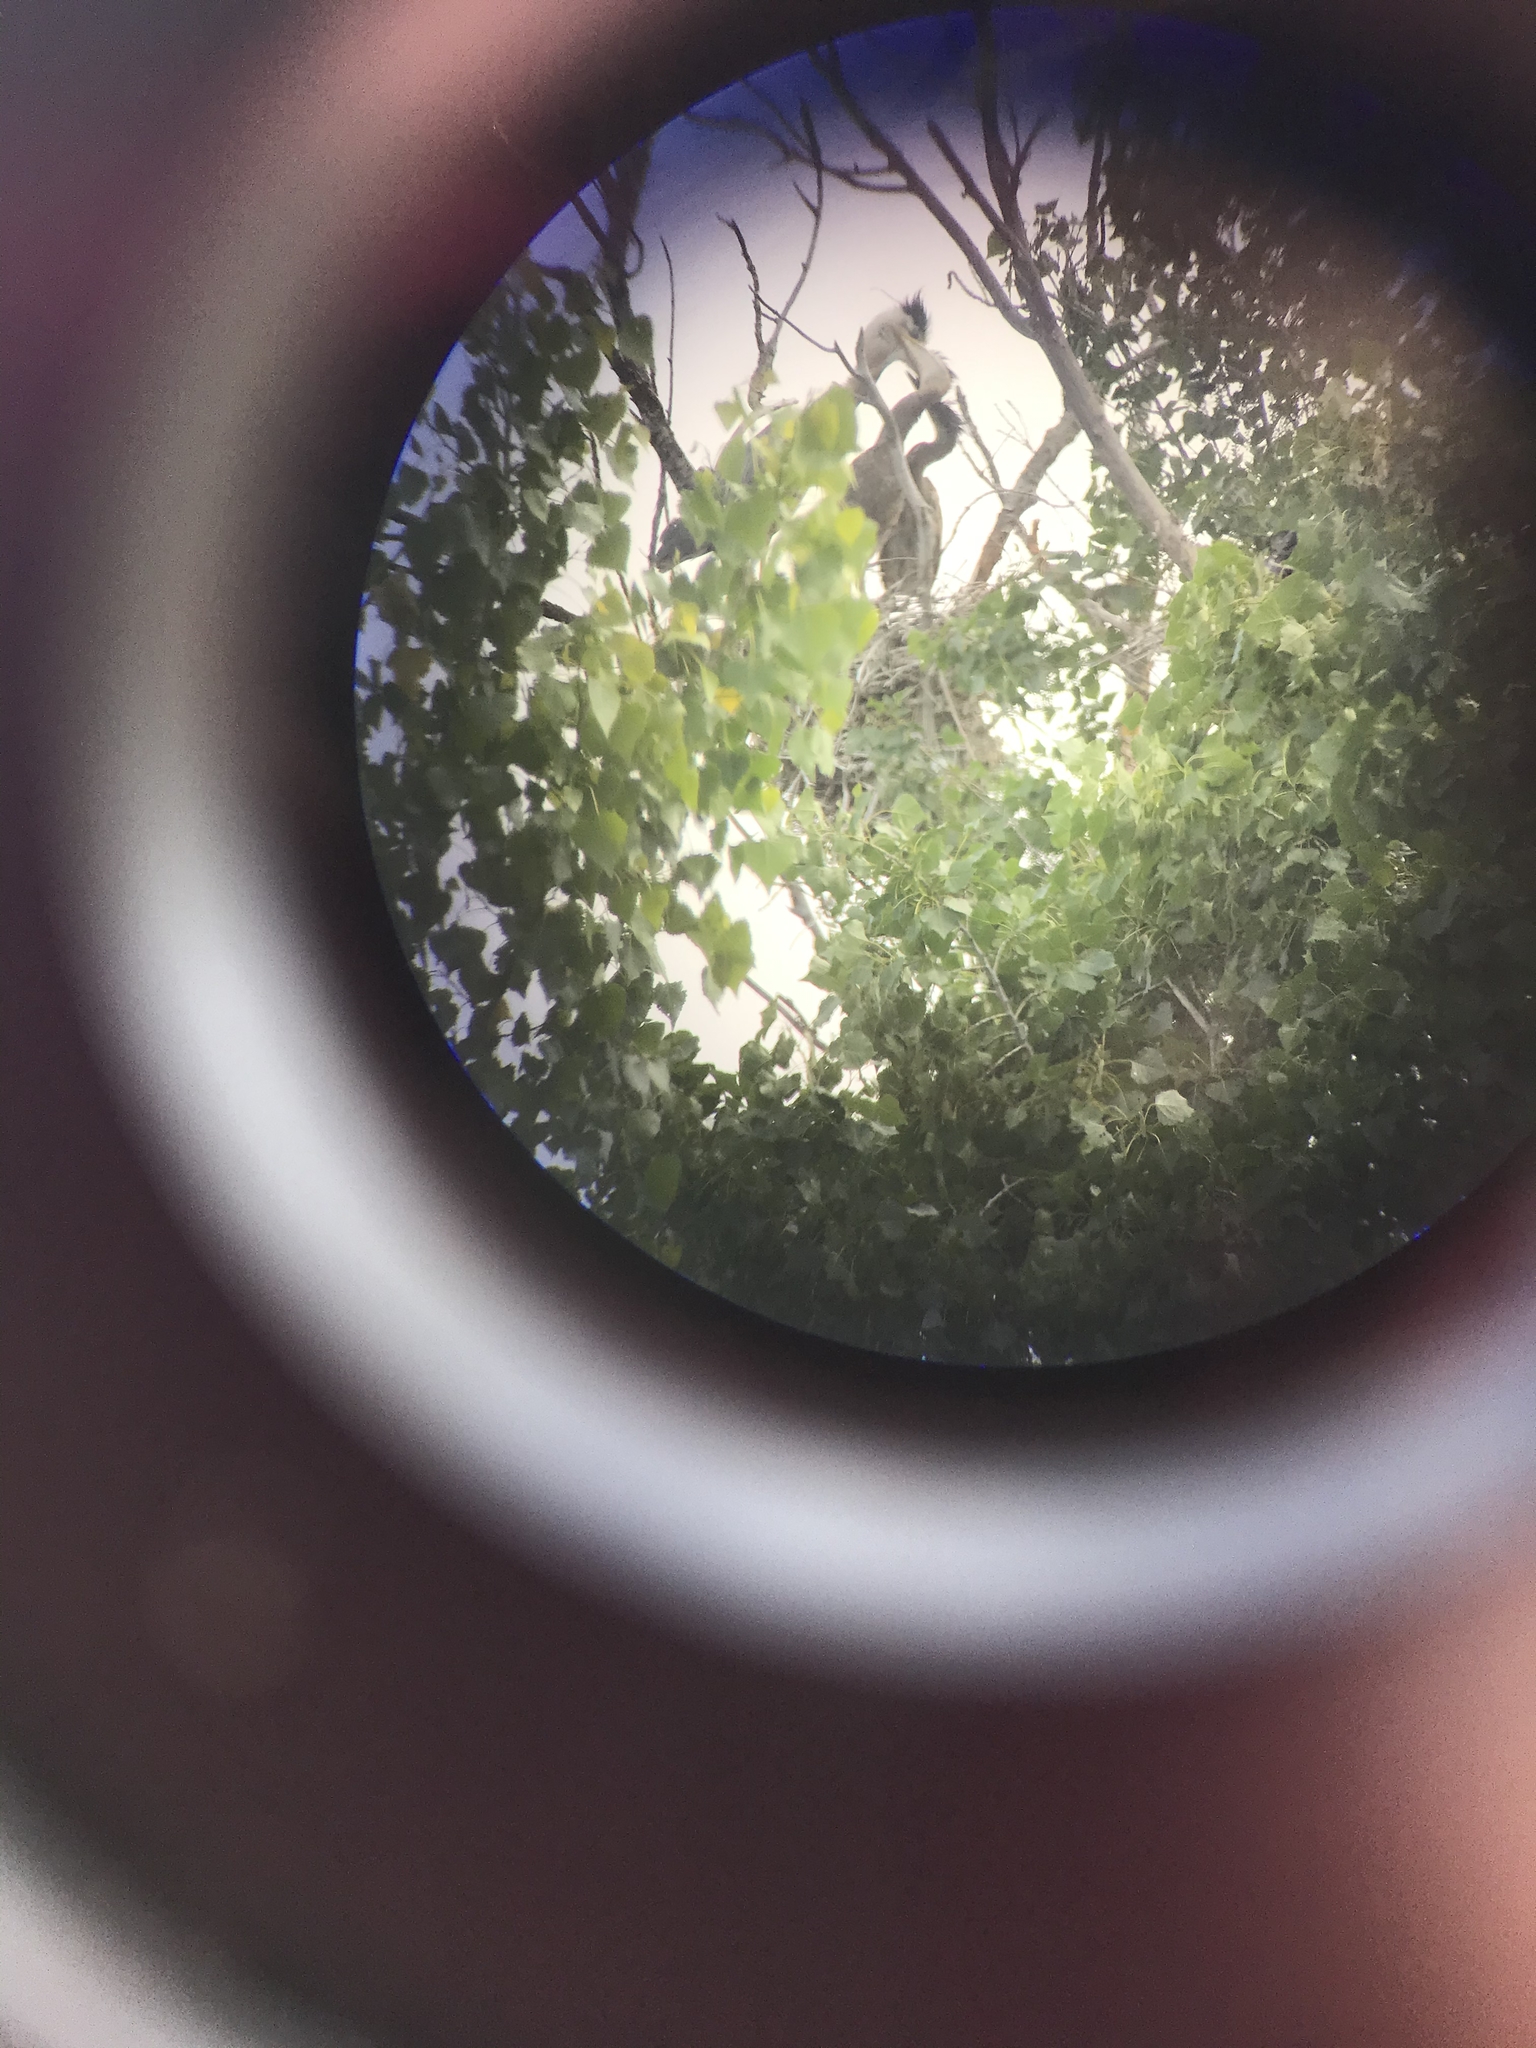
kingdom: Animalia
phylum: Chordata
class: Aves
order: Pelecaniformes
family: Ardeidae
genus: Ardea
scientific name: Ardea herodias
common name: Great blue heron
